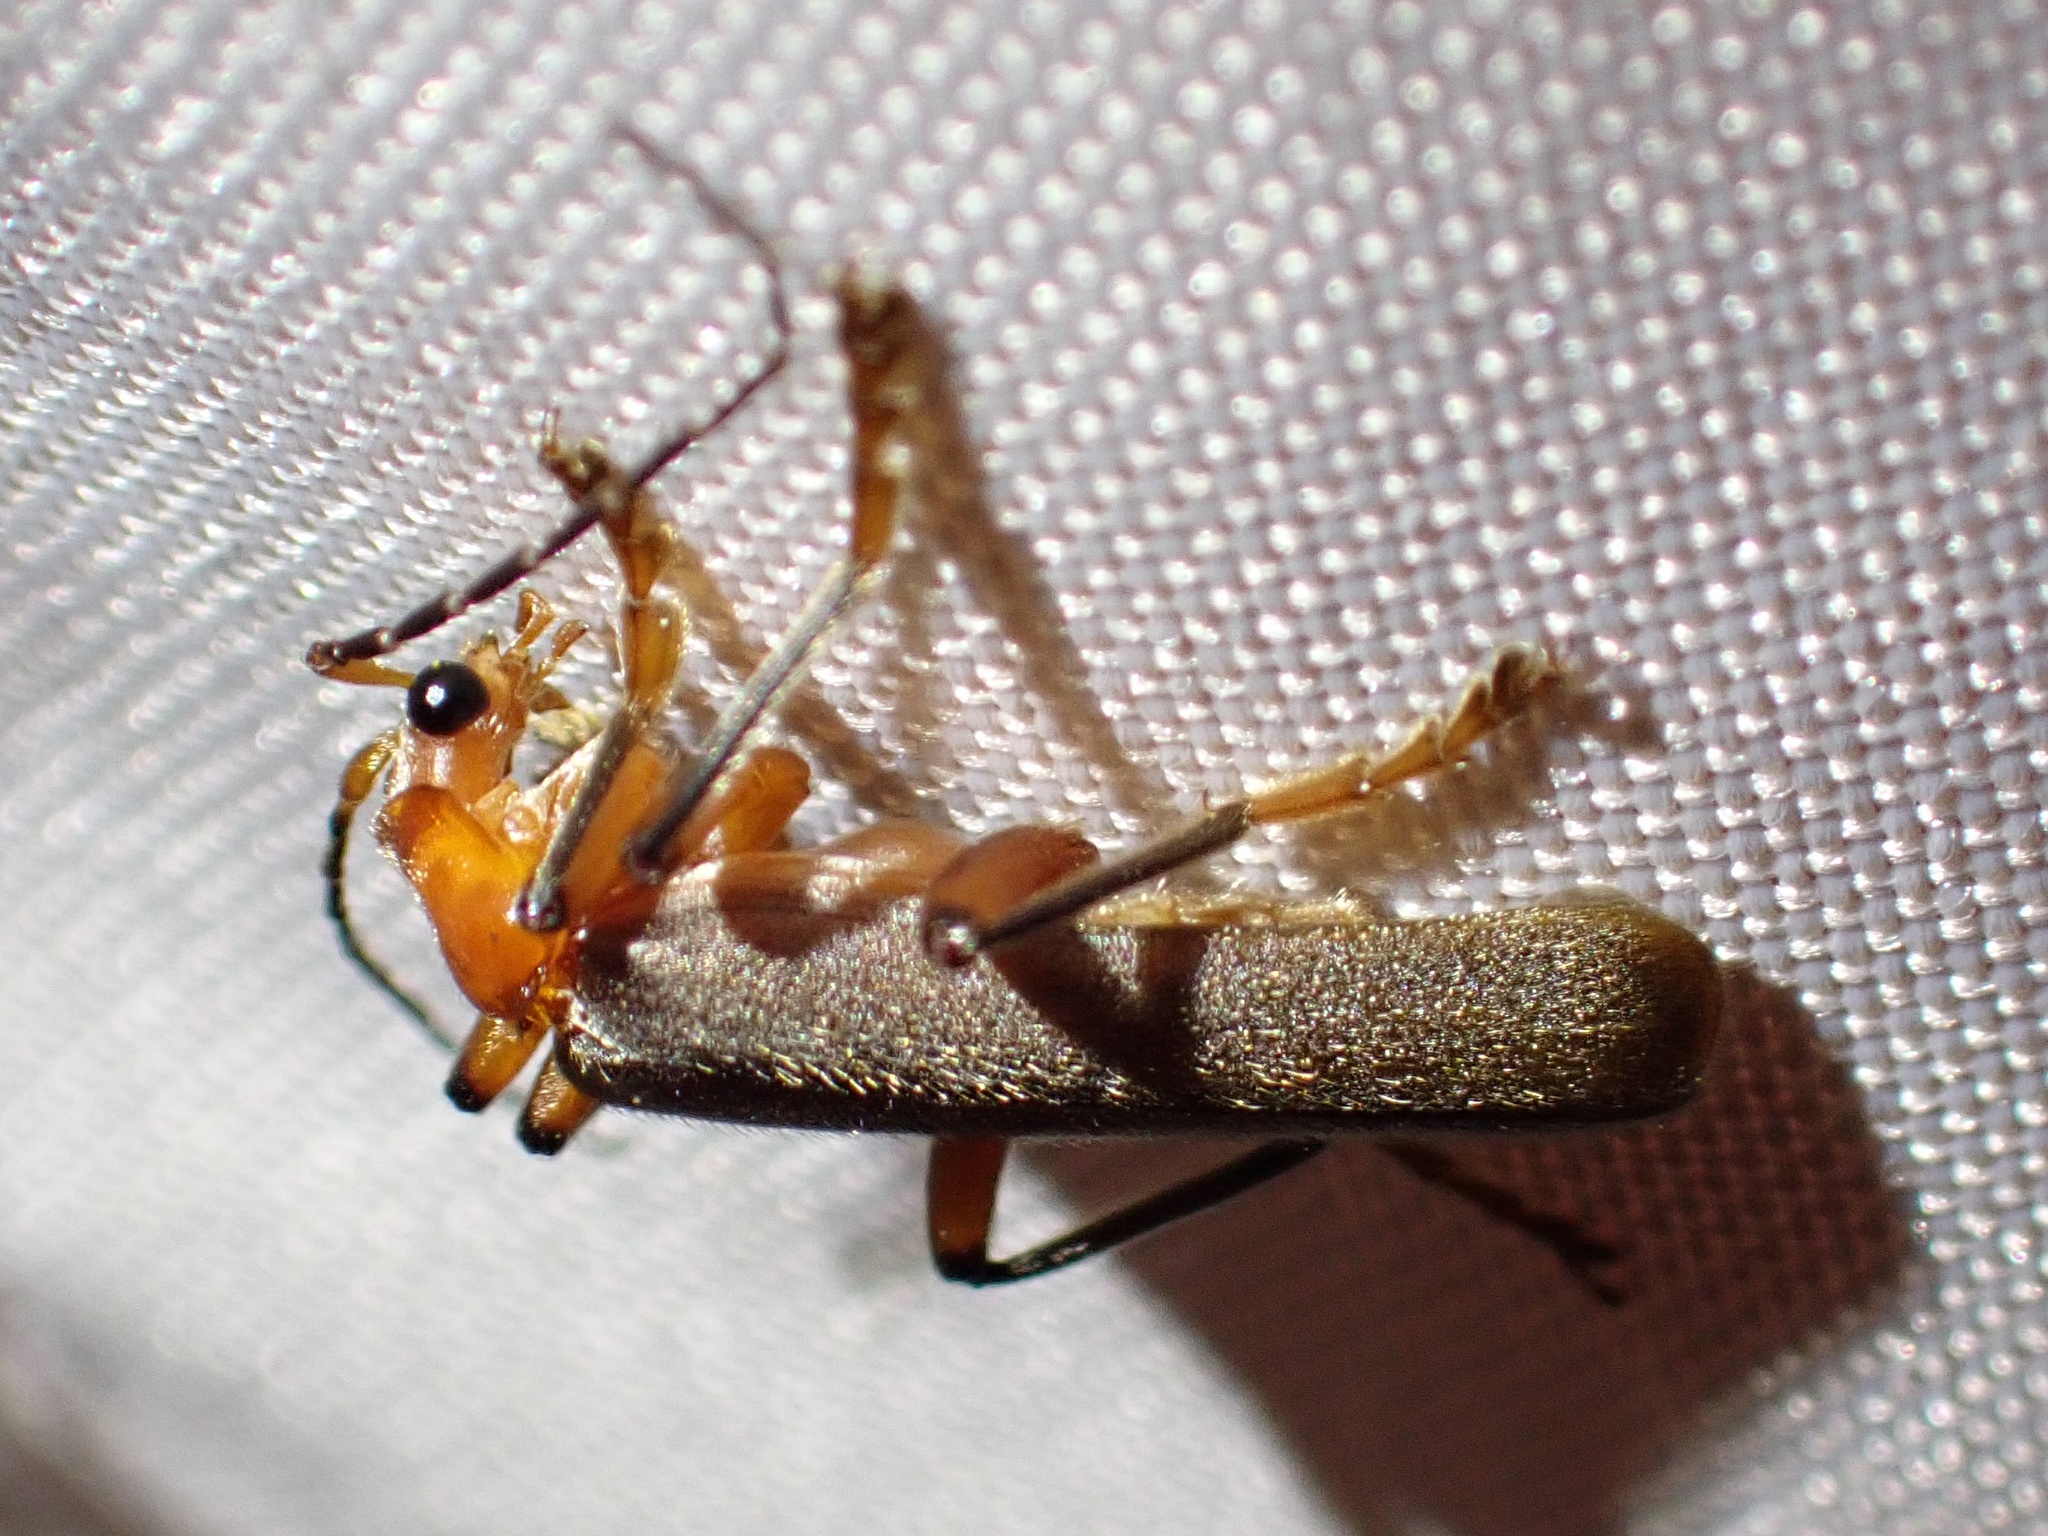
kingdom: Animalia
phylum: Arthropoda
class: Insecta
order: Coleoptera
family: Cantharidae
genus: Pacificanthia
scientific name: Pacificanthia consors
